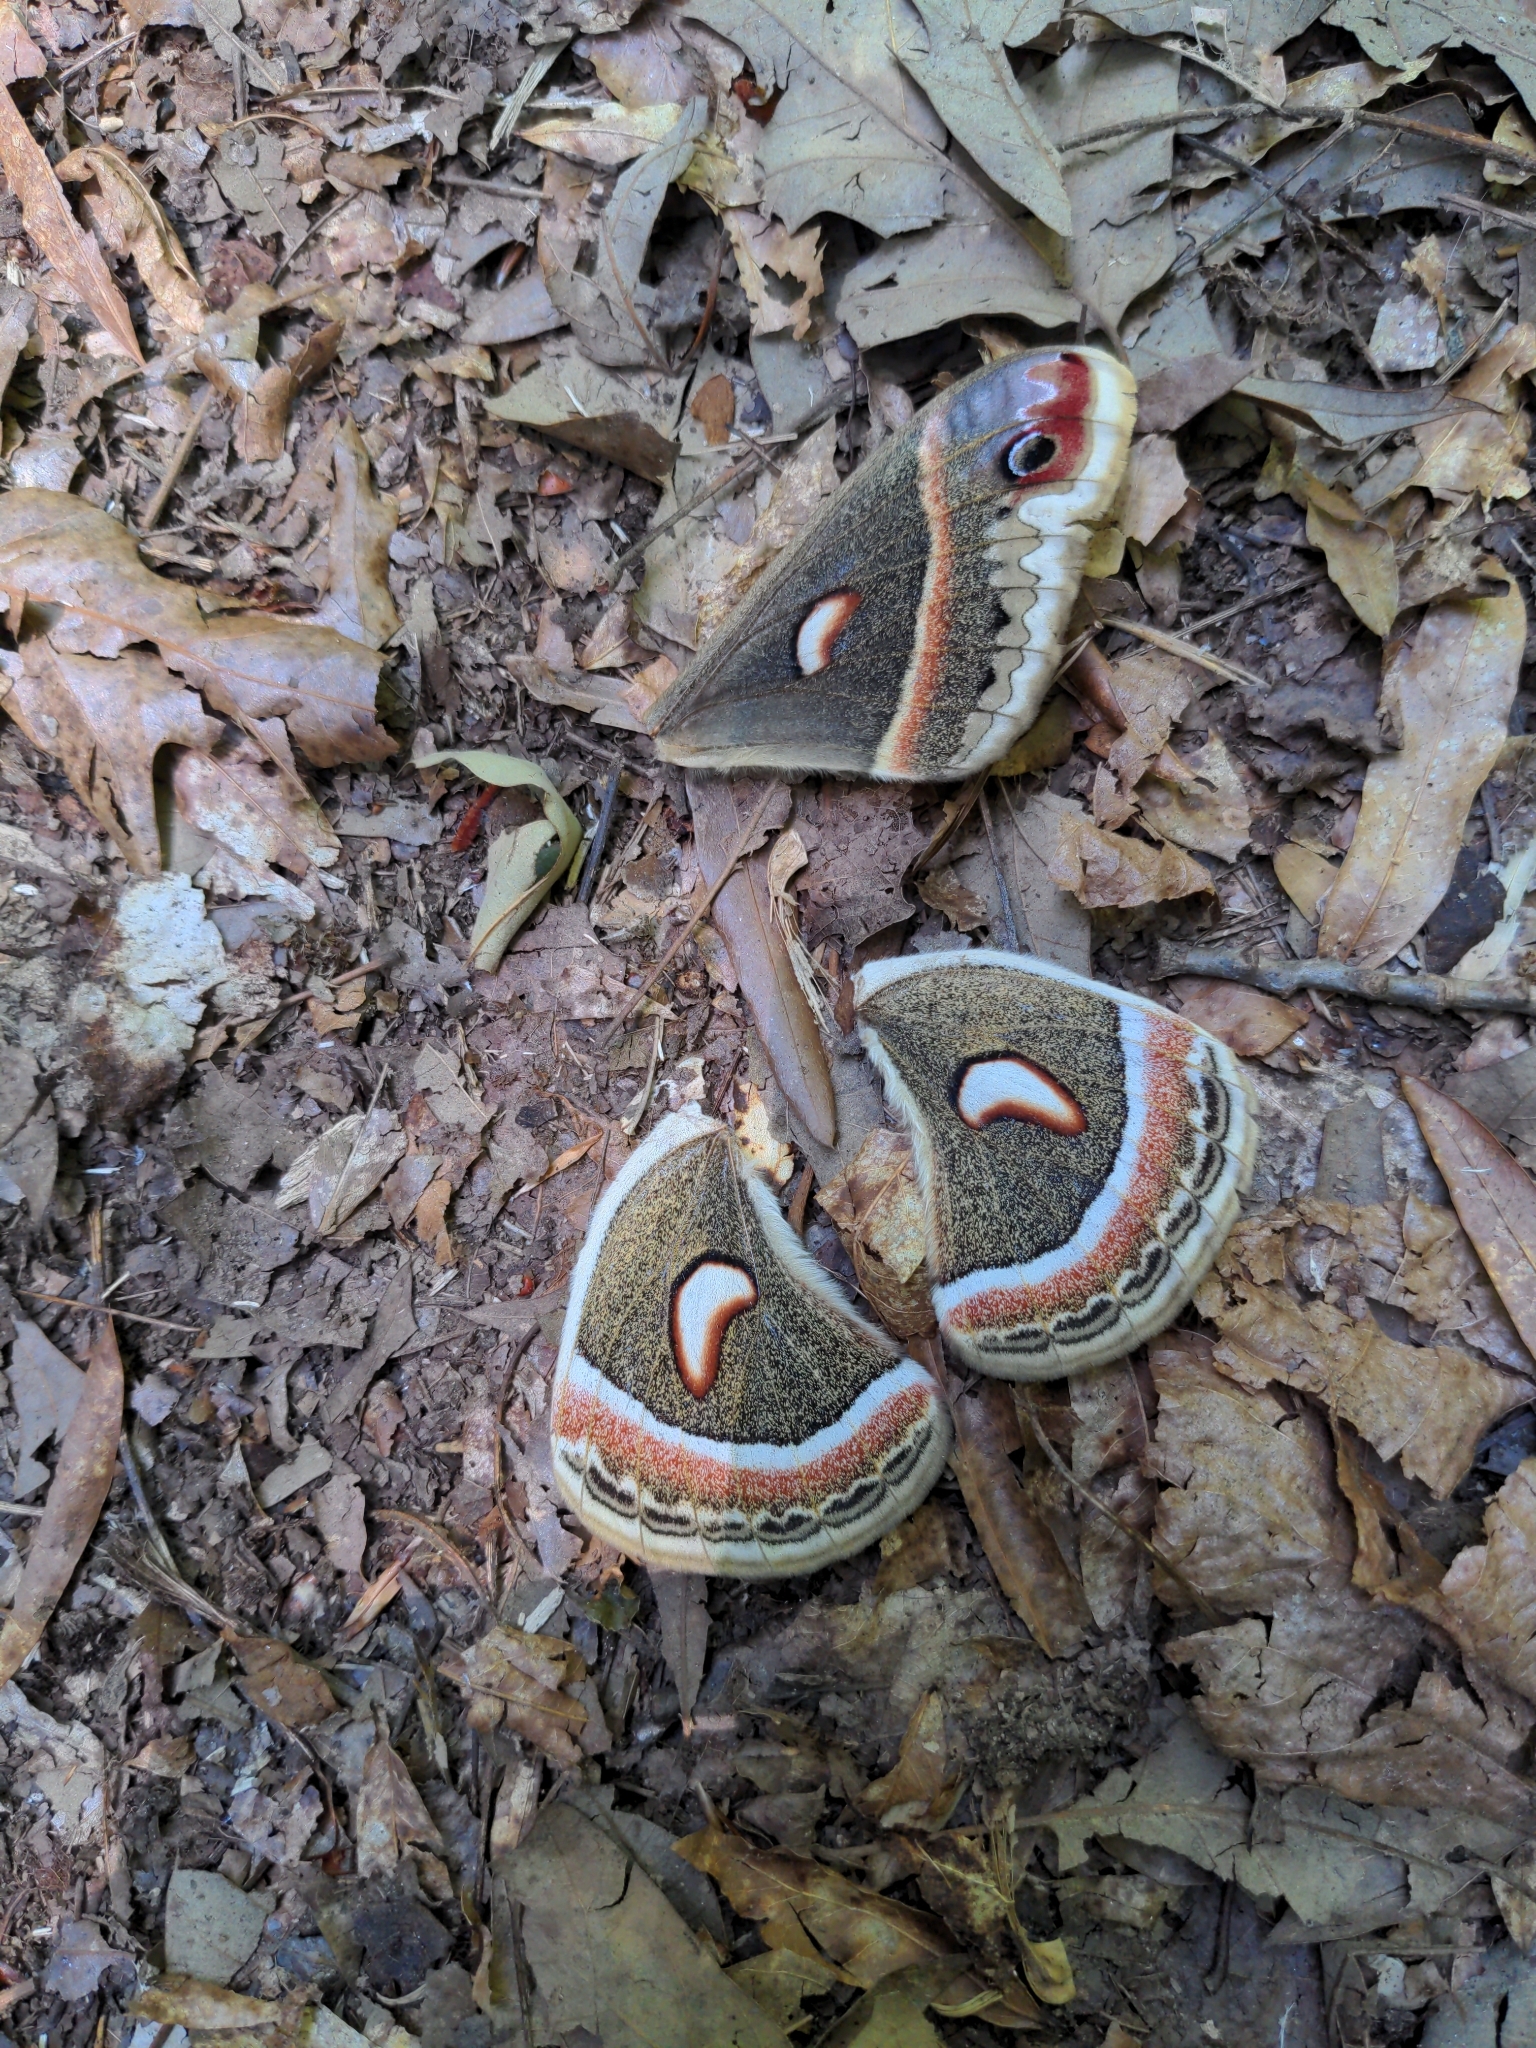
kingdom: Animalia
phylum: Arthropoda
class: Insecta
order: Lepidoptera
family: Saturniidae
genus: Hyalophora
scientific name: Hyalophora cecropia
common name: Cecropia silkmoth
